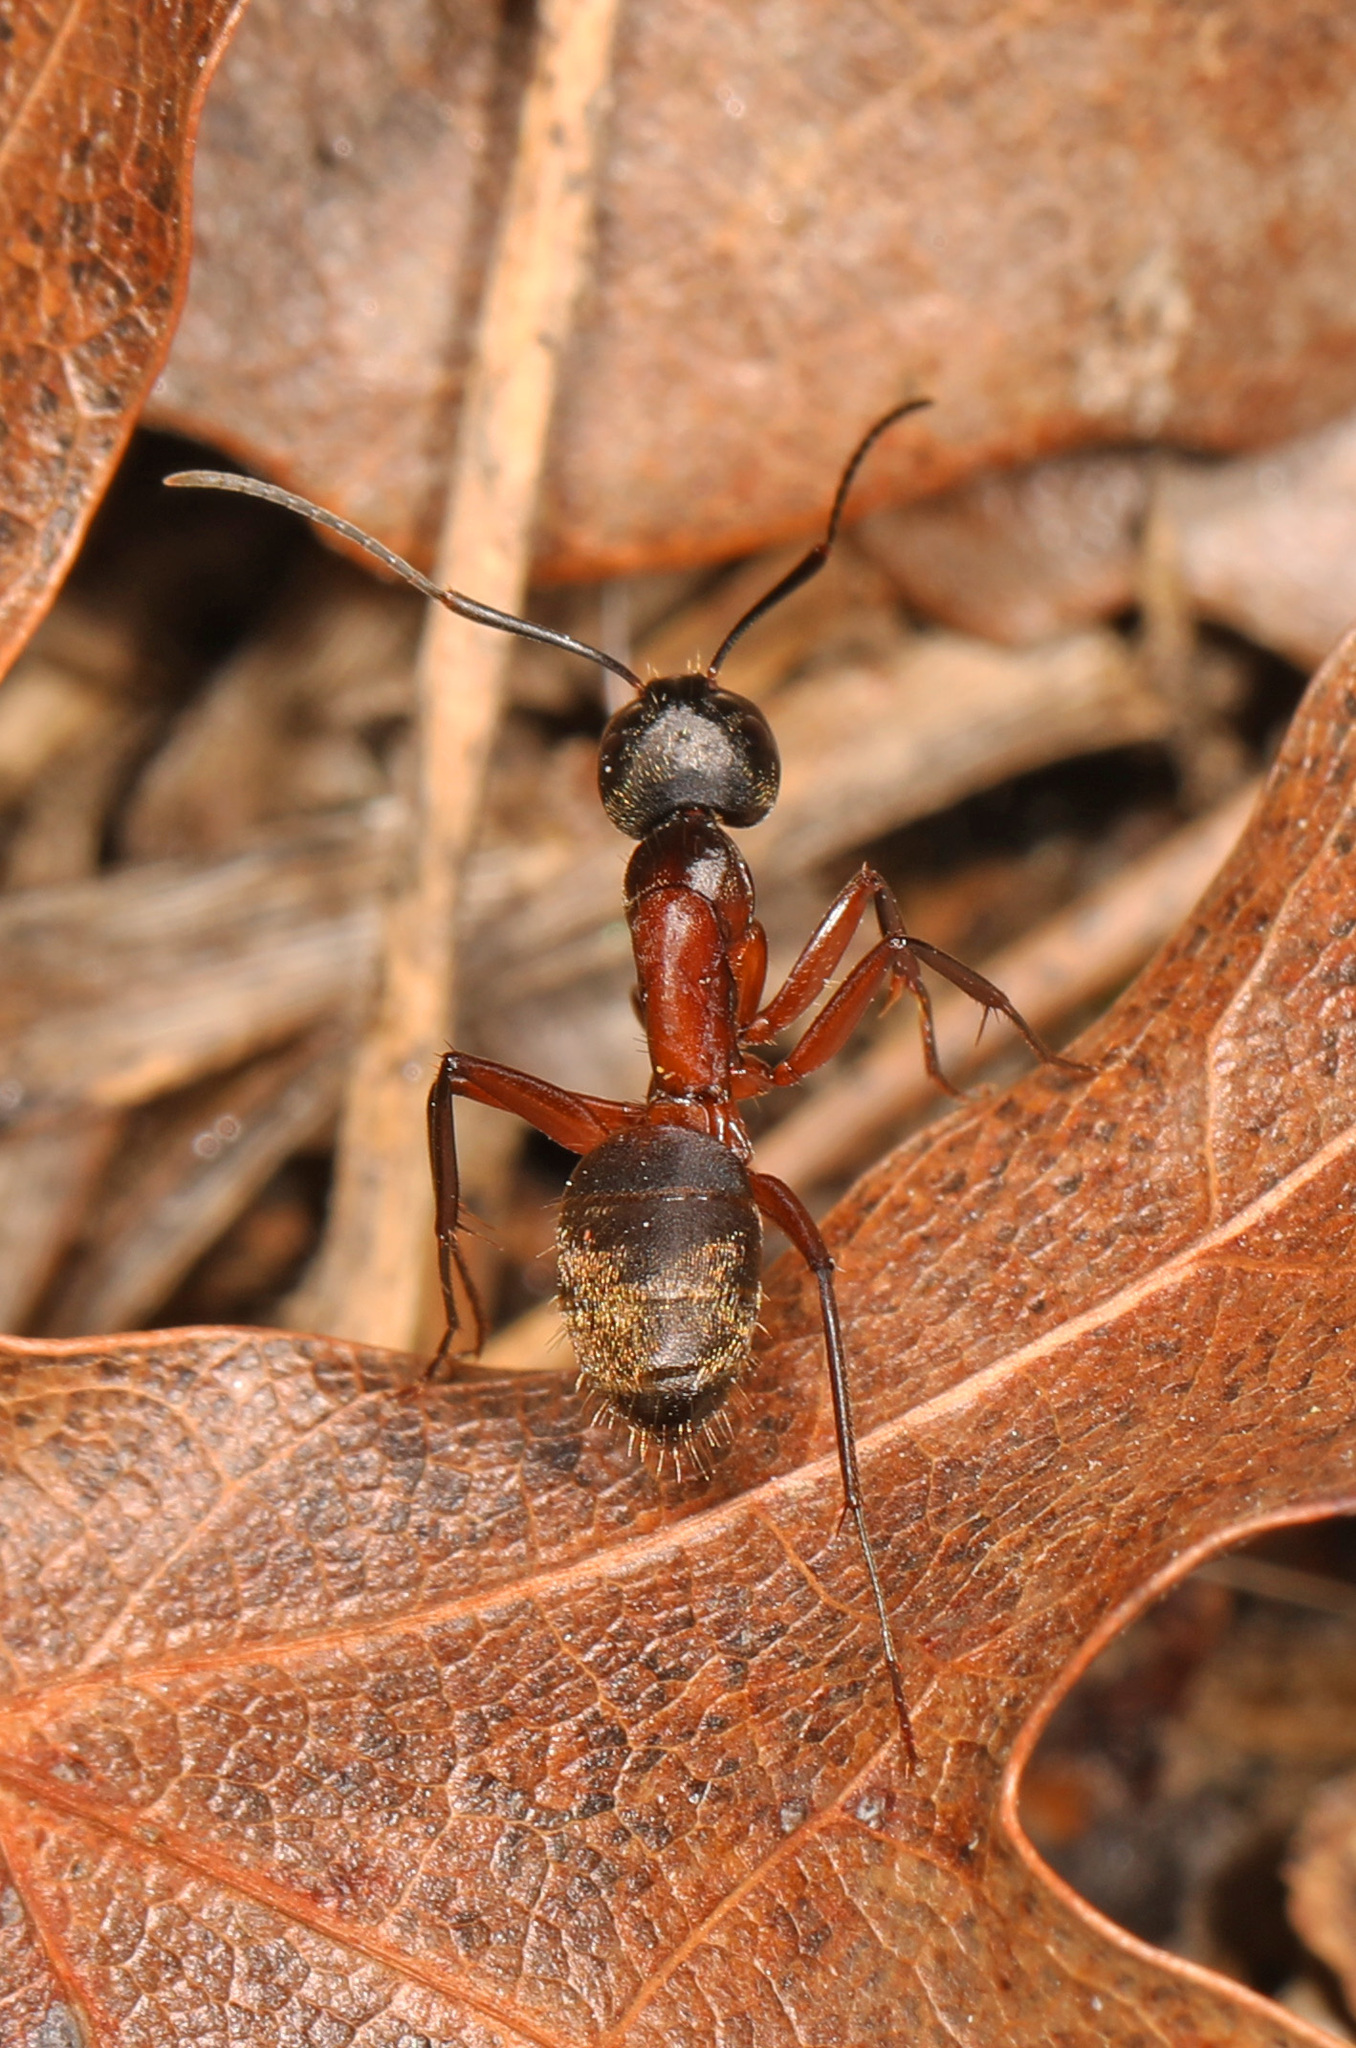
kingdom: Animalia
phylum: Arthropoda
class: Insecta
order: Hymenoptera
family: Formicidae
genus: Camponotus
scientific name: Camponotus chromaiodes
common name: Red carpenter ant
